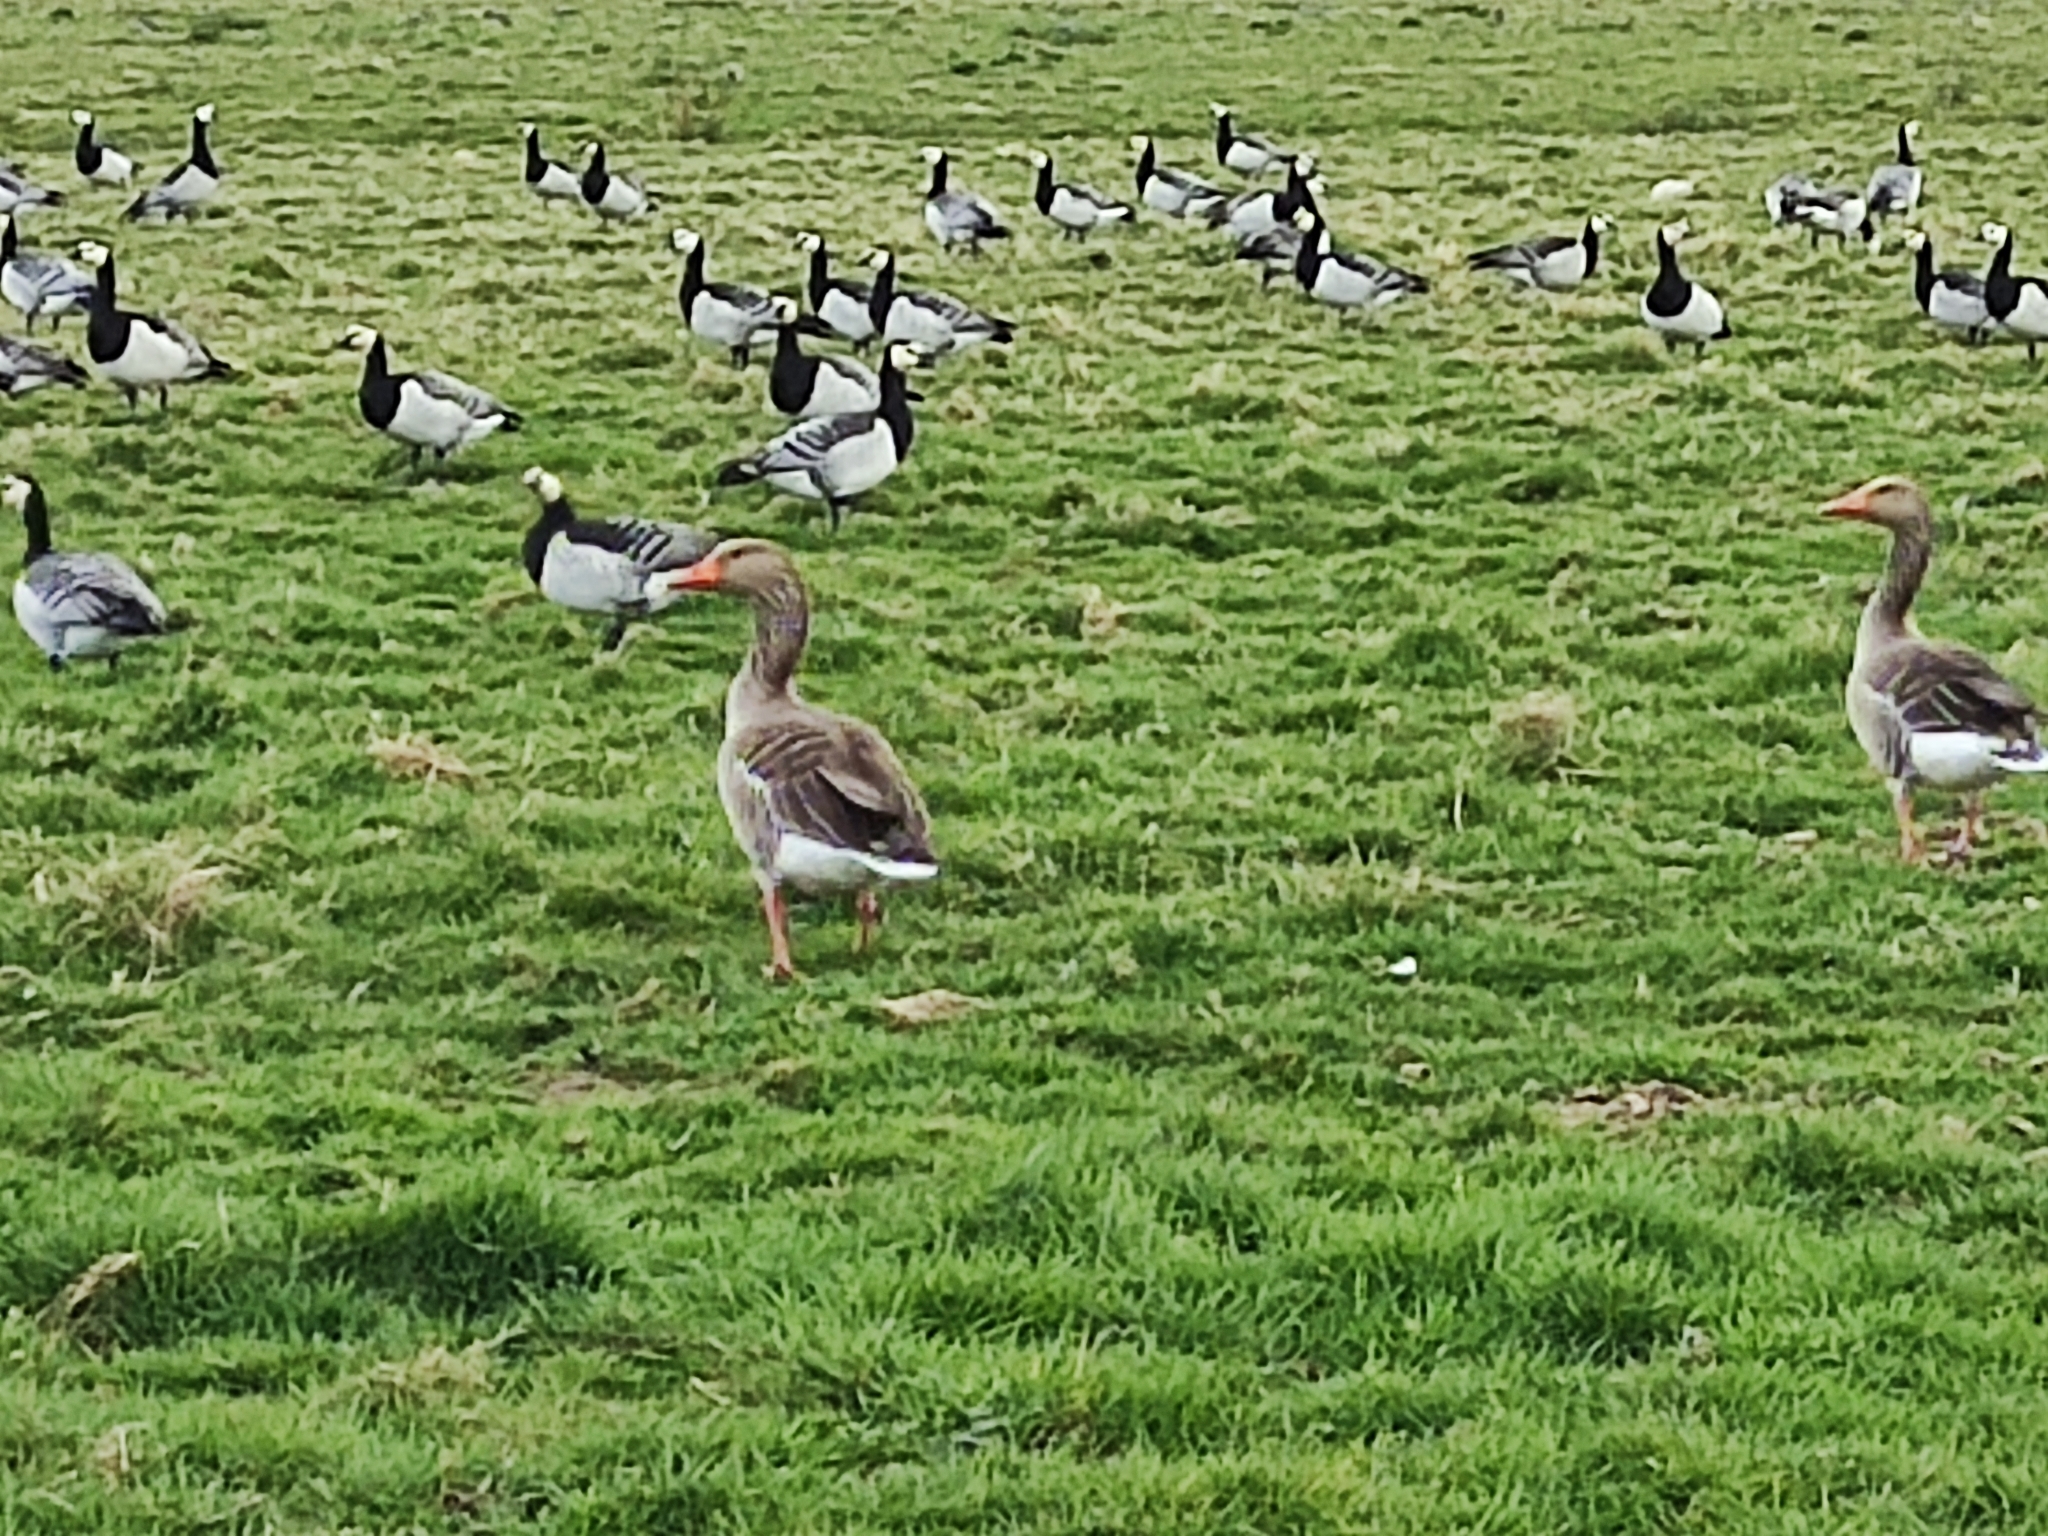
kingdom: Animalia
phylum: Chordata
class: Aves
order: Anseriformes
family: Anatidae
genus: Anser
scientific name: Anser anser
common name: Greylag goose
